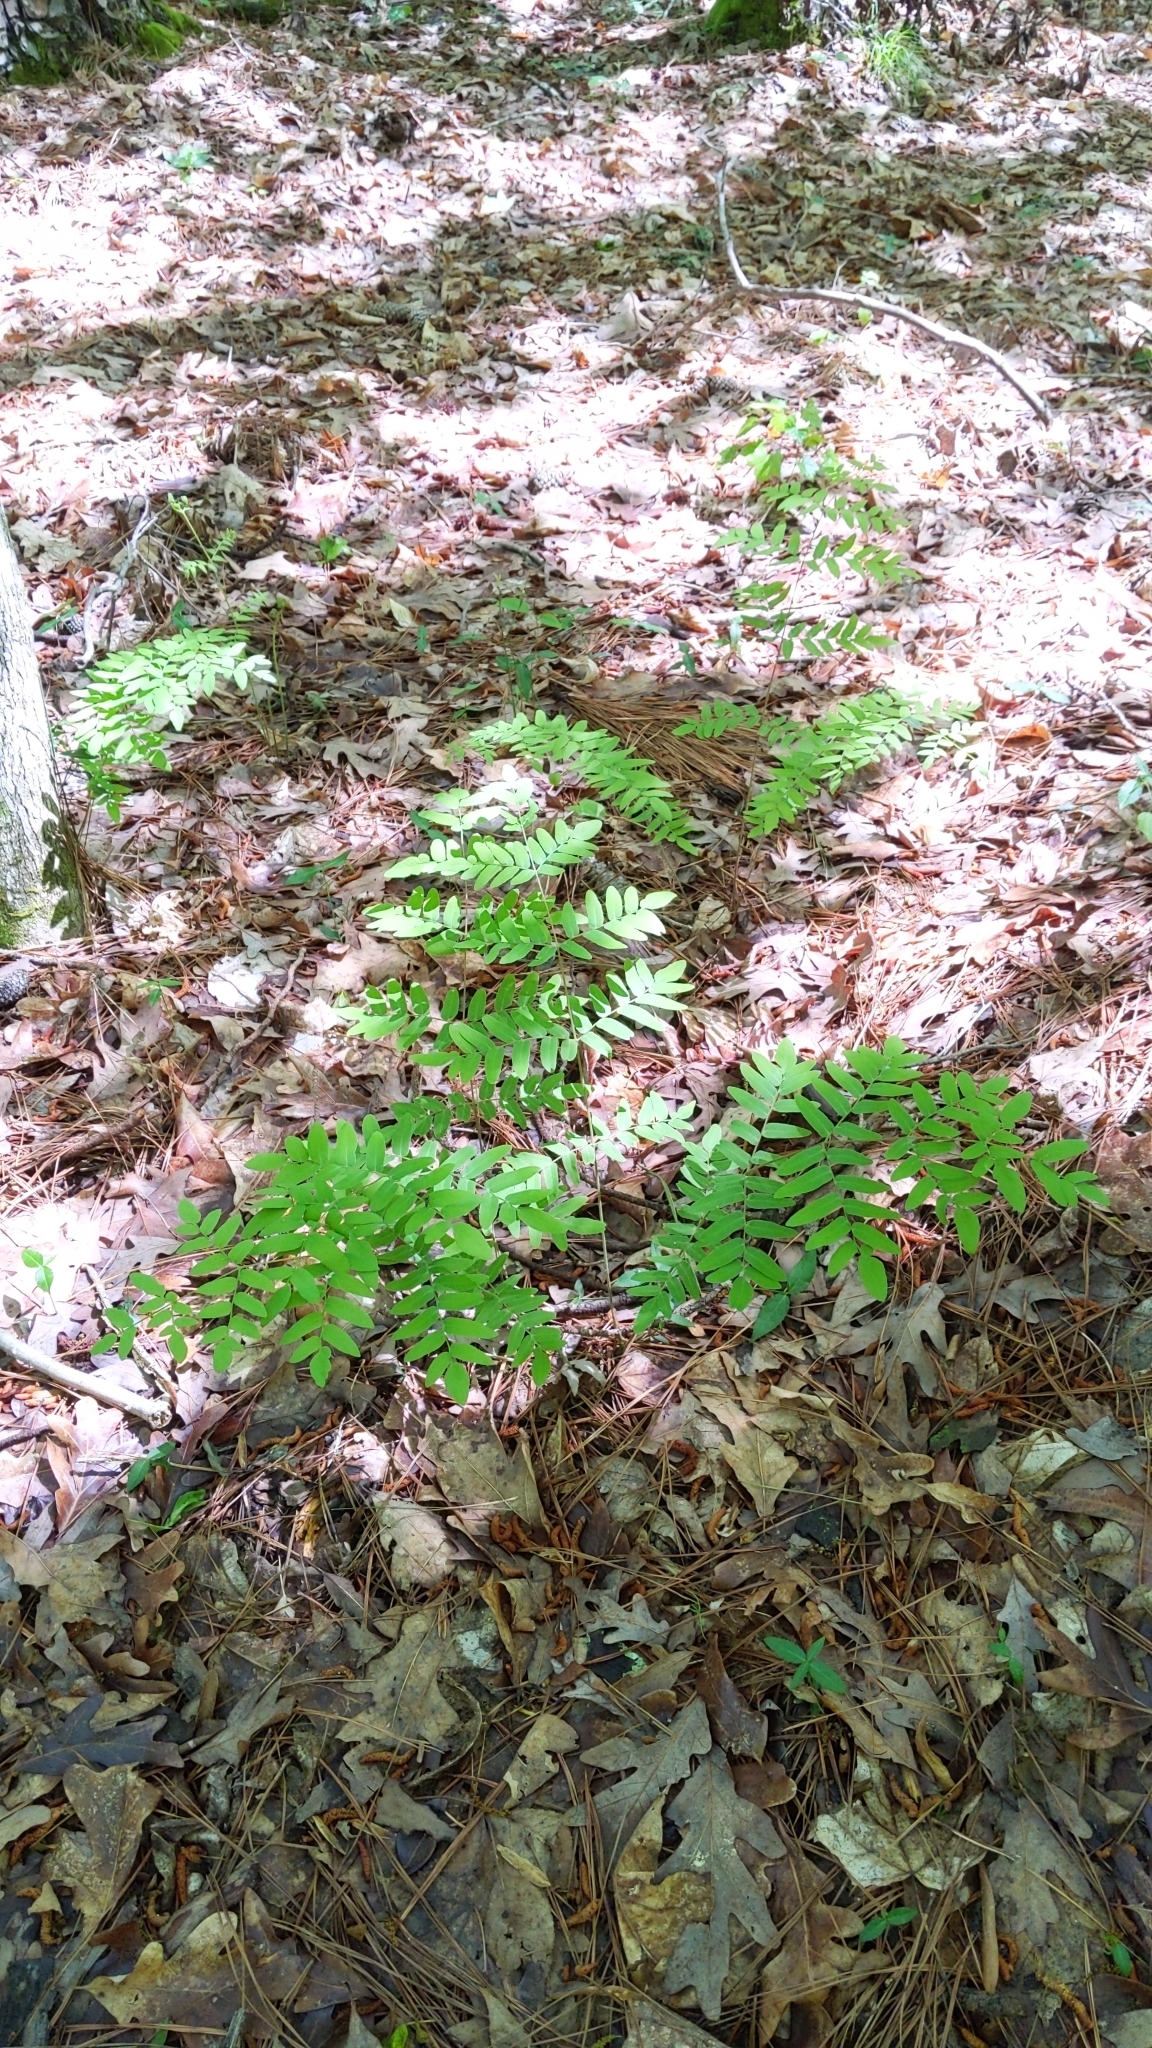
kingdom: Plantae
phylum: Tracheophyta
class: Polypodiopsida
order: Osmundales
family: Osmundaceae
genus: Osmunda
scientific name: Osmunda spectabilis
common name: American royal fern
